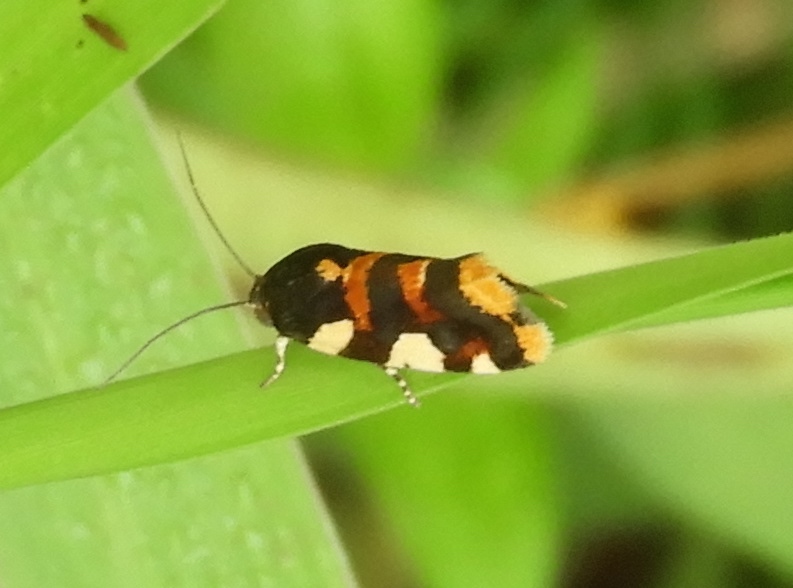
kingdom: Animalia
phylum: Arthropoda
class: Insecta
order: Lepidoptera
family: Noctuidae
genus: Acontia
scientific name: Acontia dama
